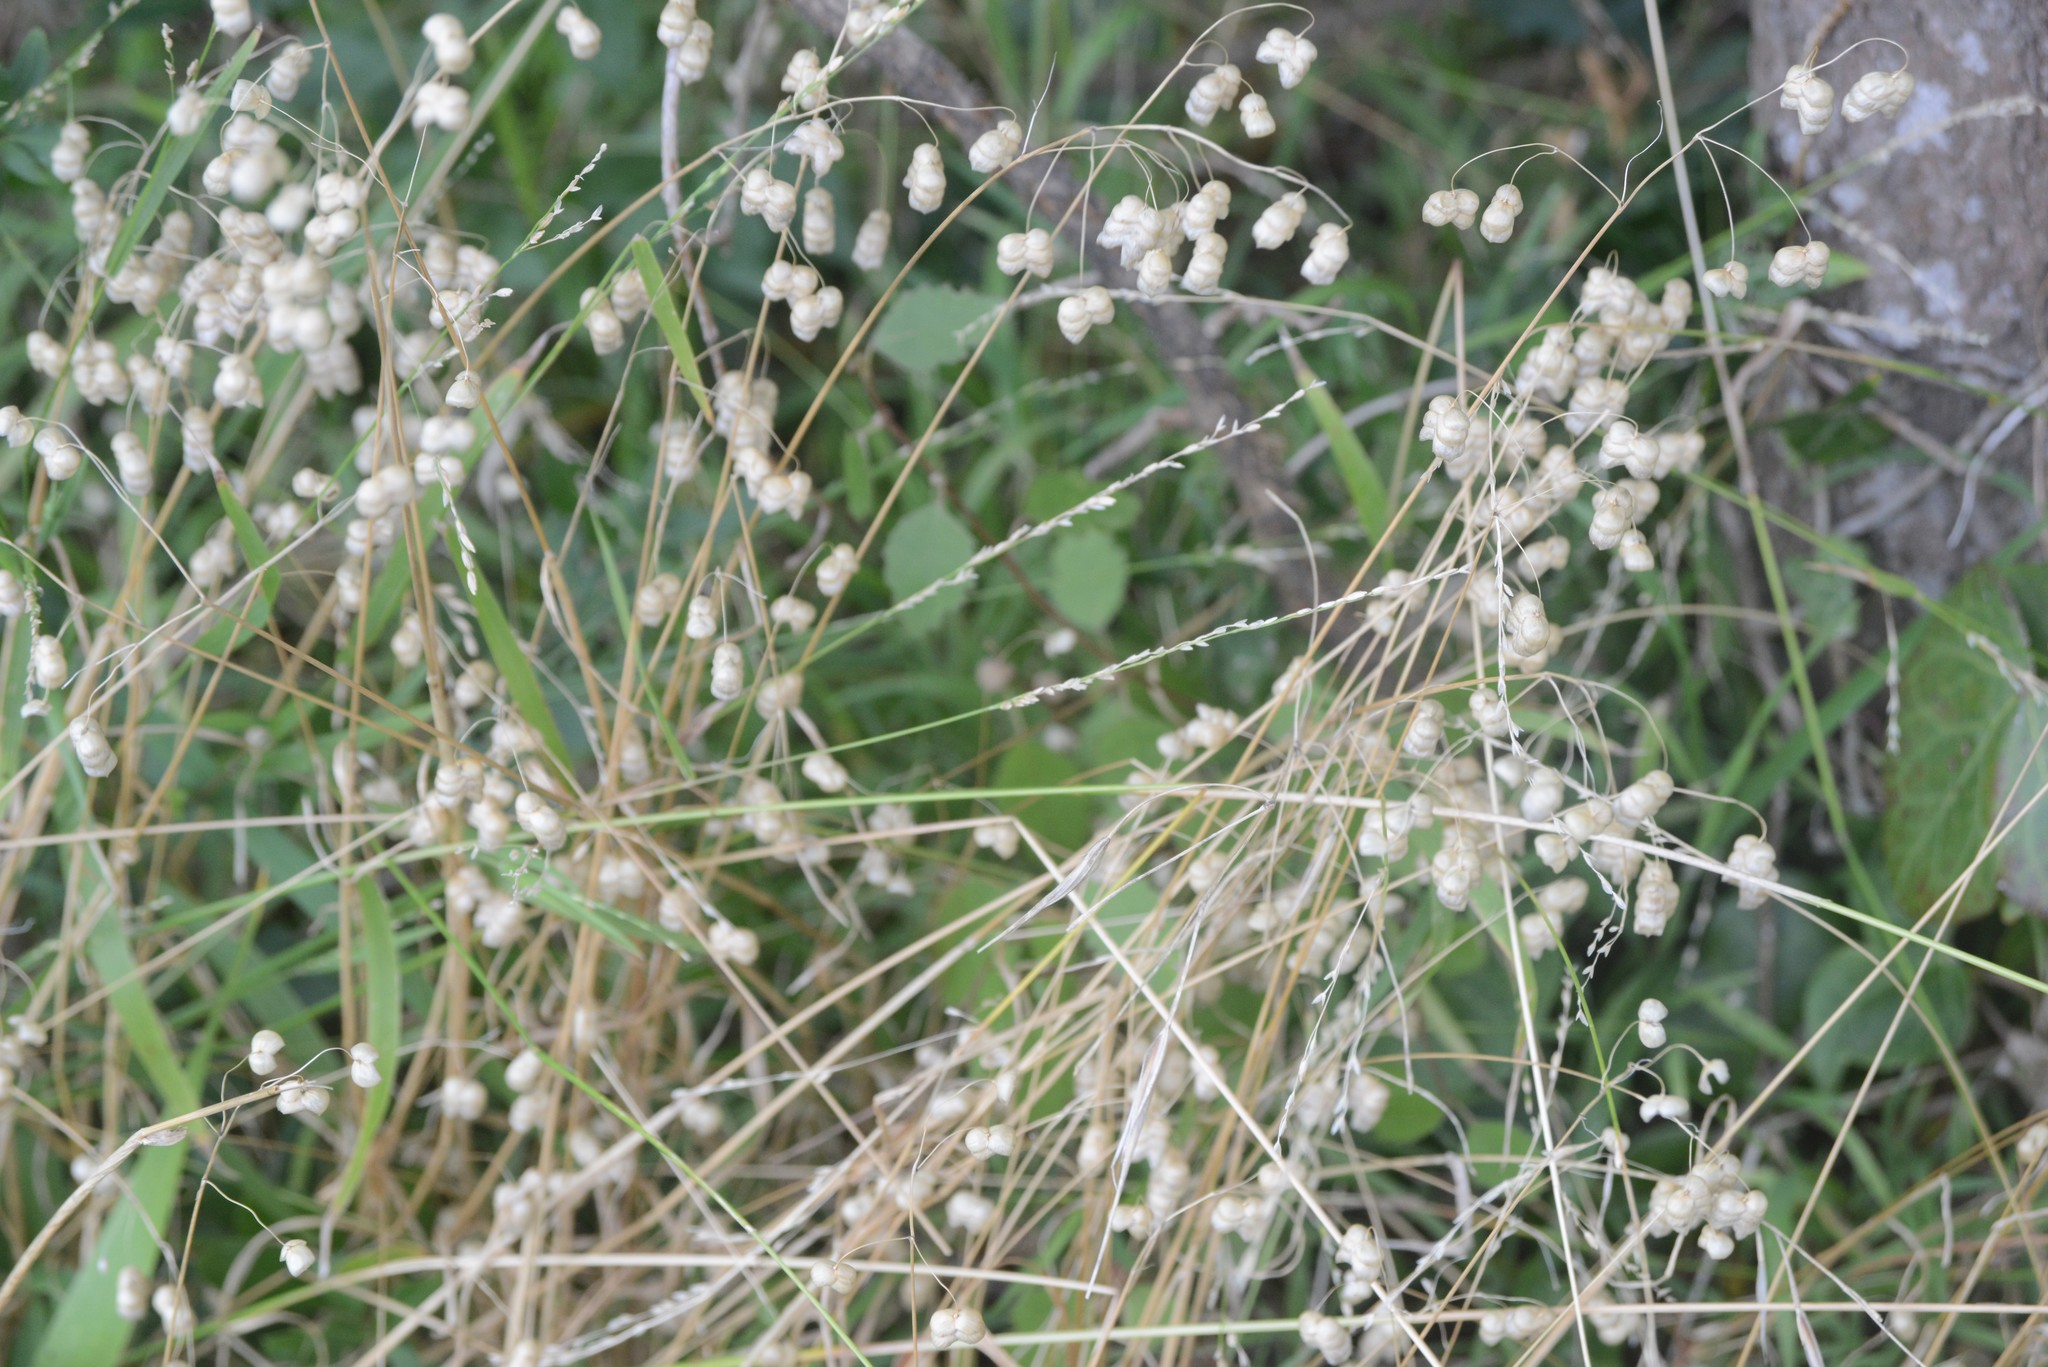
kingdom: Plantae
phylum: Tracheophyta
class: Liliopsida
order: Poales
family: Poaceae
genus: Briza
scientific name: Briza maxima
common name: Big quakinggrass
